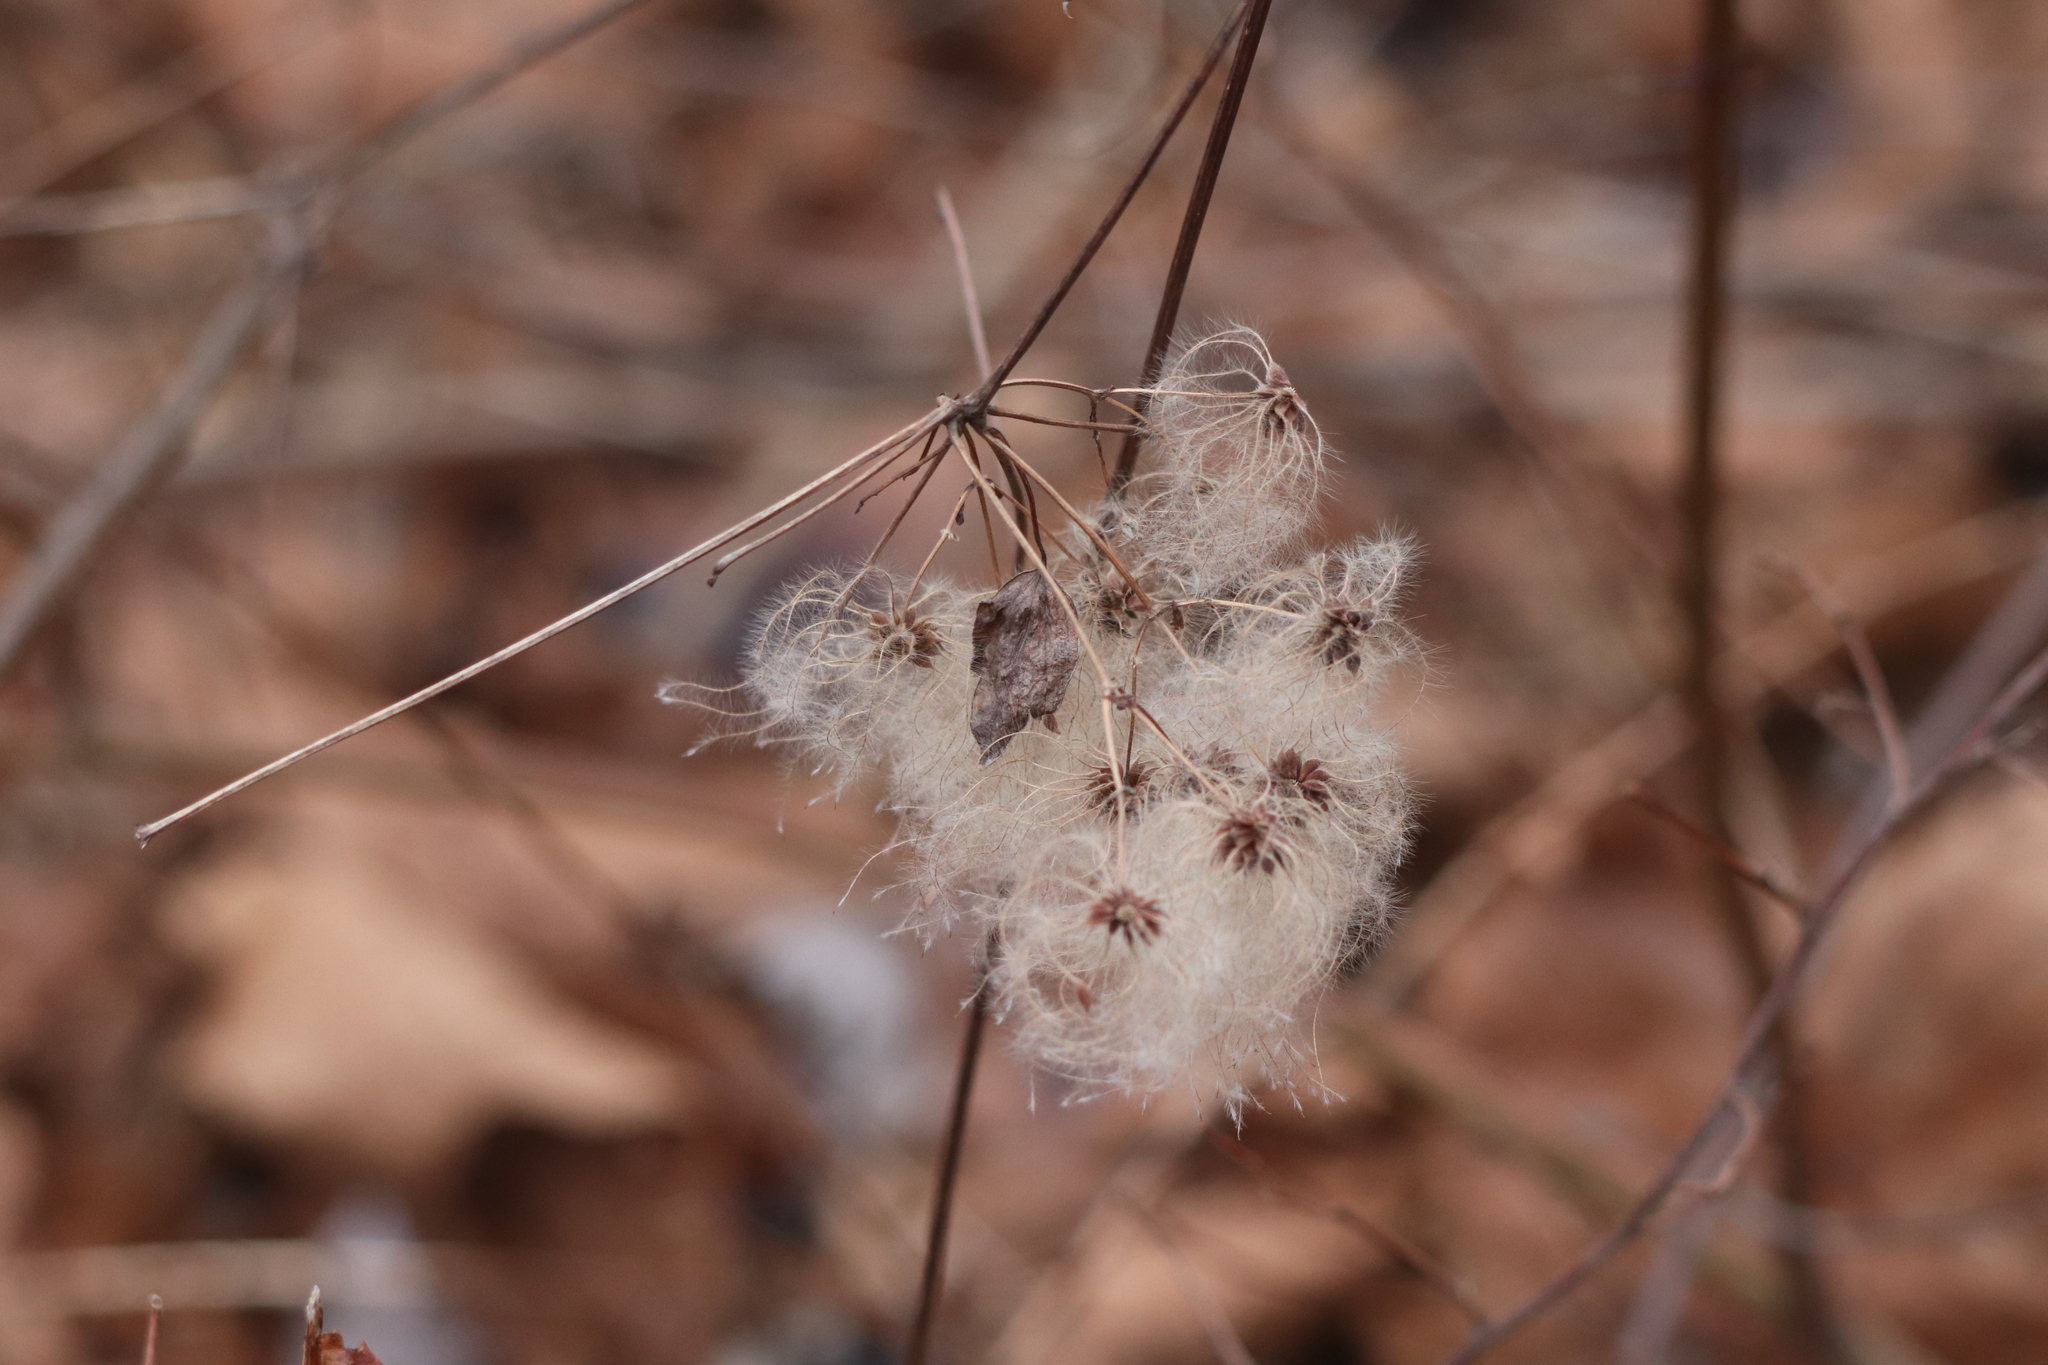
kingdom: Plantae
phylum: Tracheophyta
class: Magnoliopsida
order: Ranunculales
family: Ranunculaceae
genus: Clematis
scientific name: Clematis virginiana
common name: Virgin's-bower
